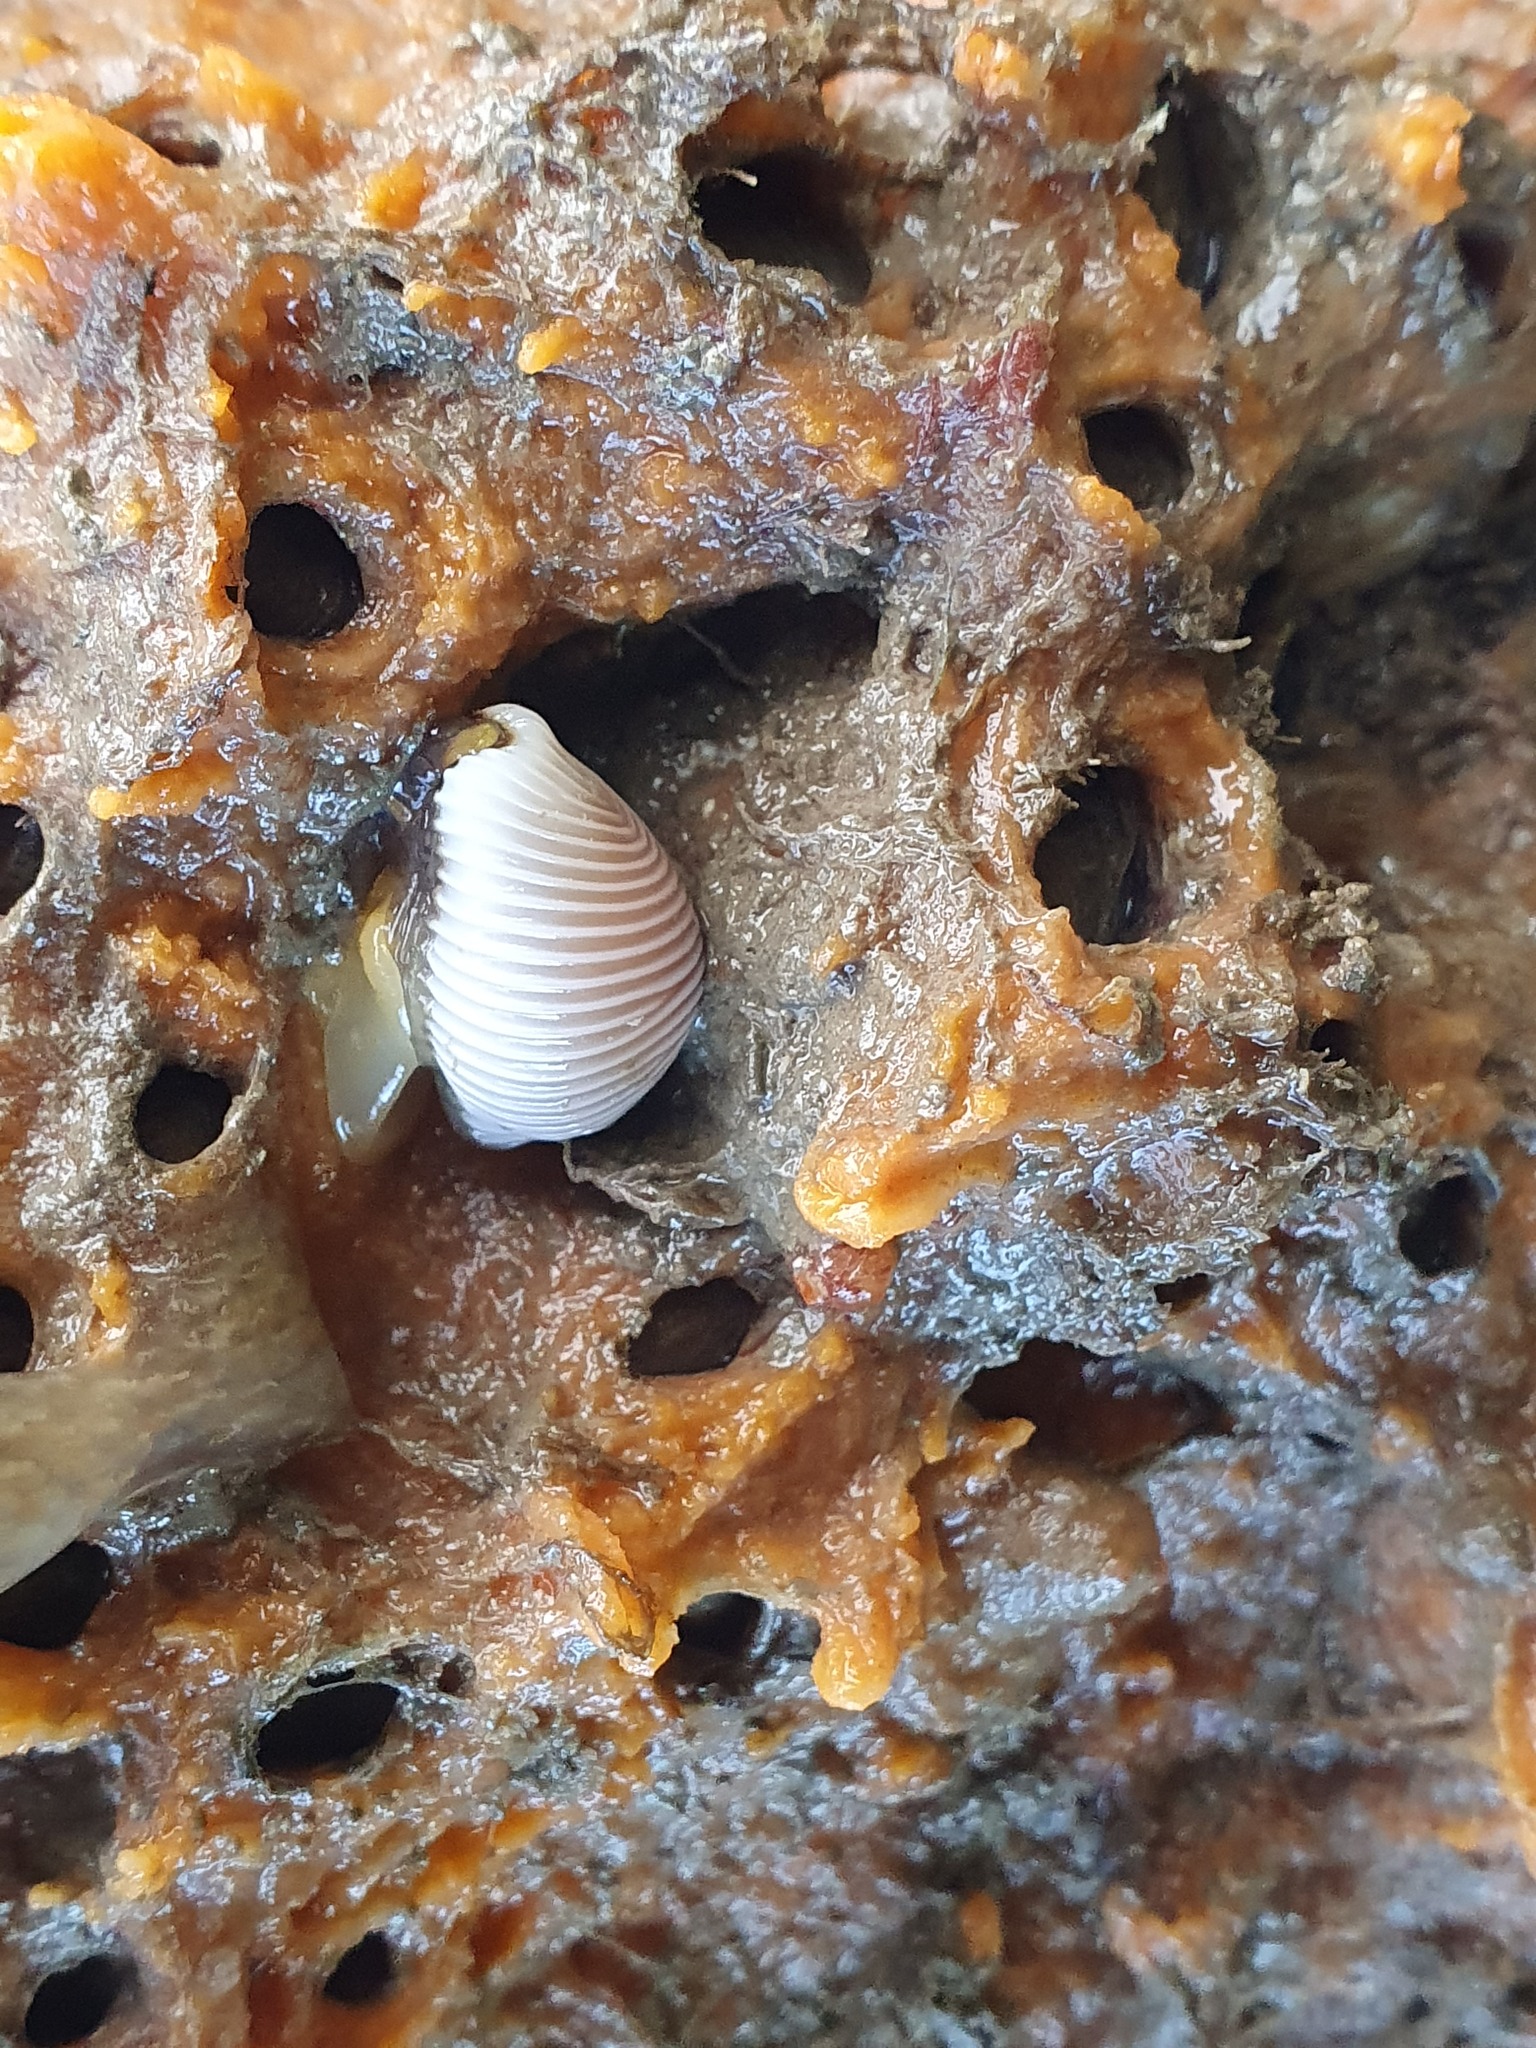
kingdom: Animalia
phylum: Mollusca
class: Gastropoda
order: Littorinimorpha
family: Triviidae
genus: Trivia
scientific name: Trivia arctica
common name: Arctic cowrie
